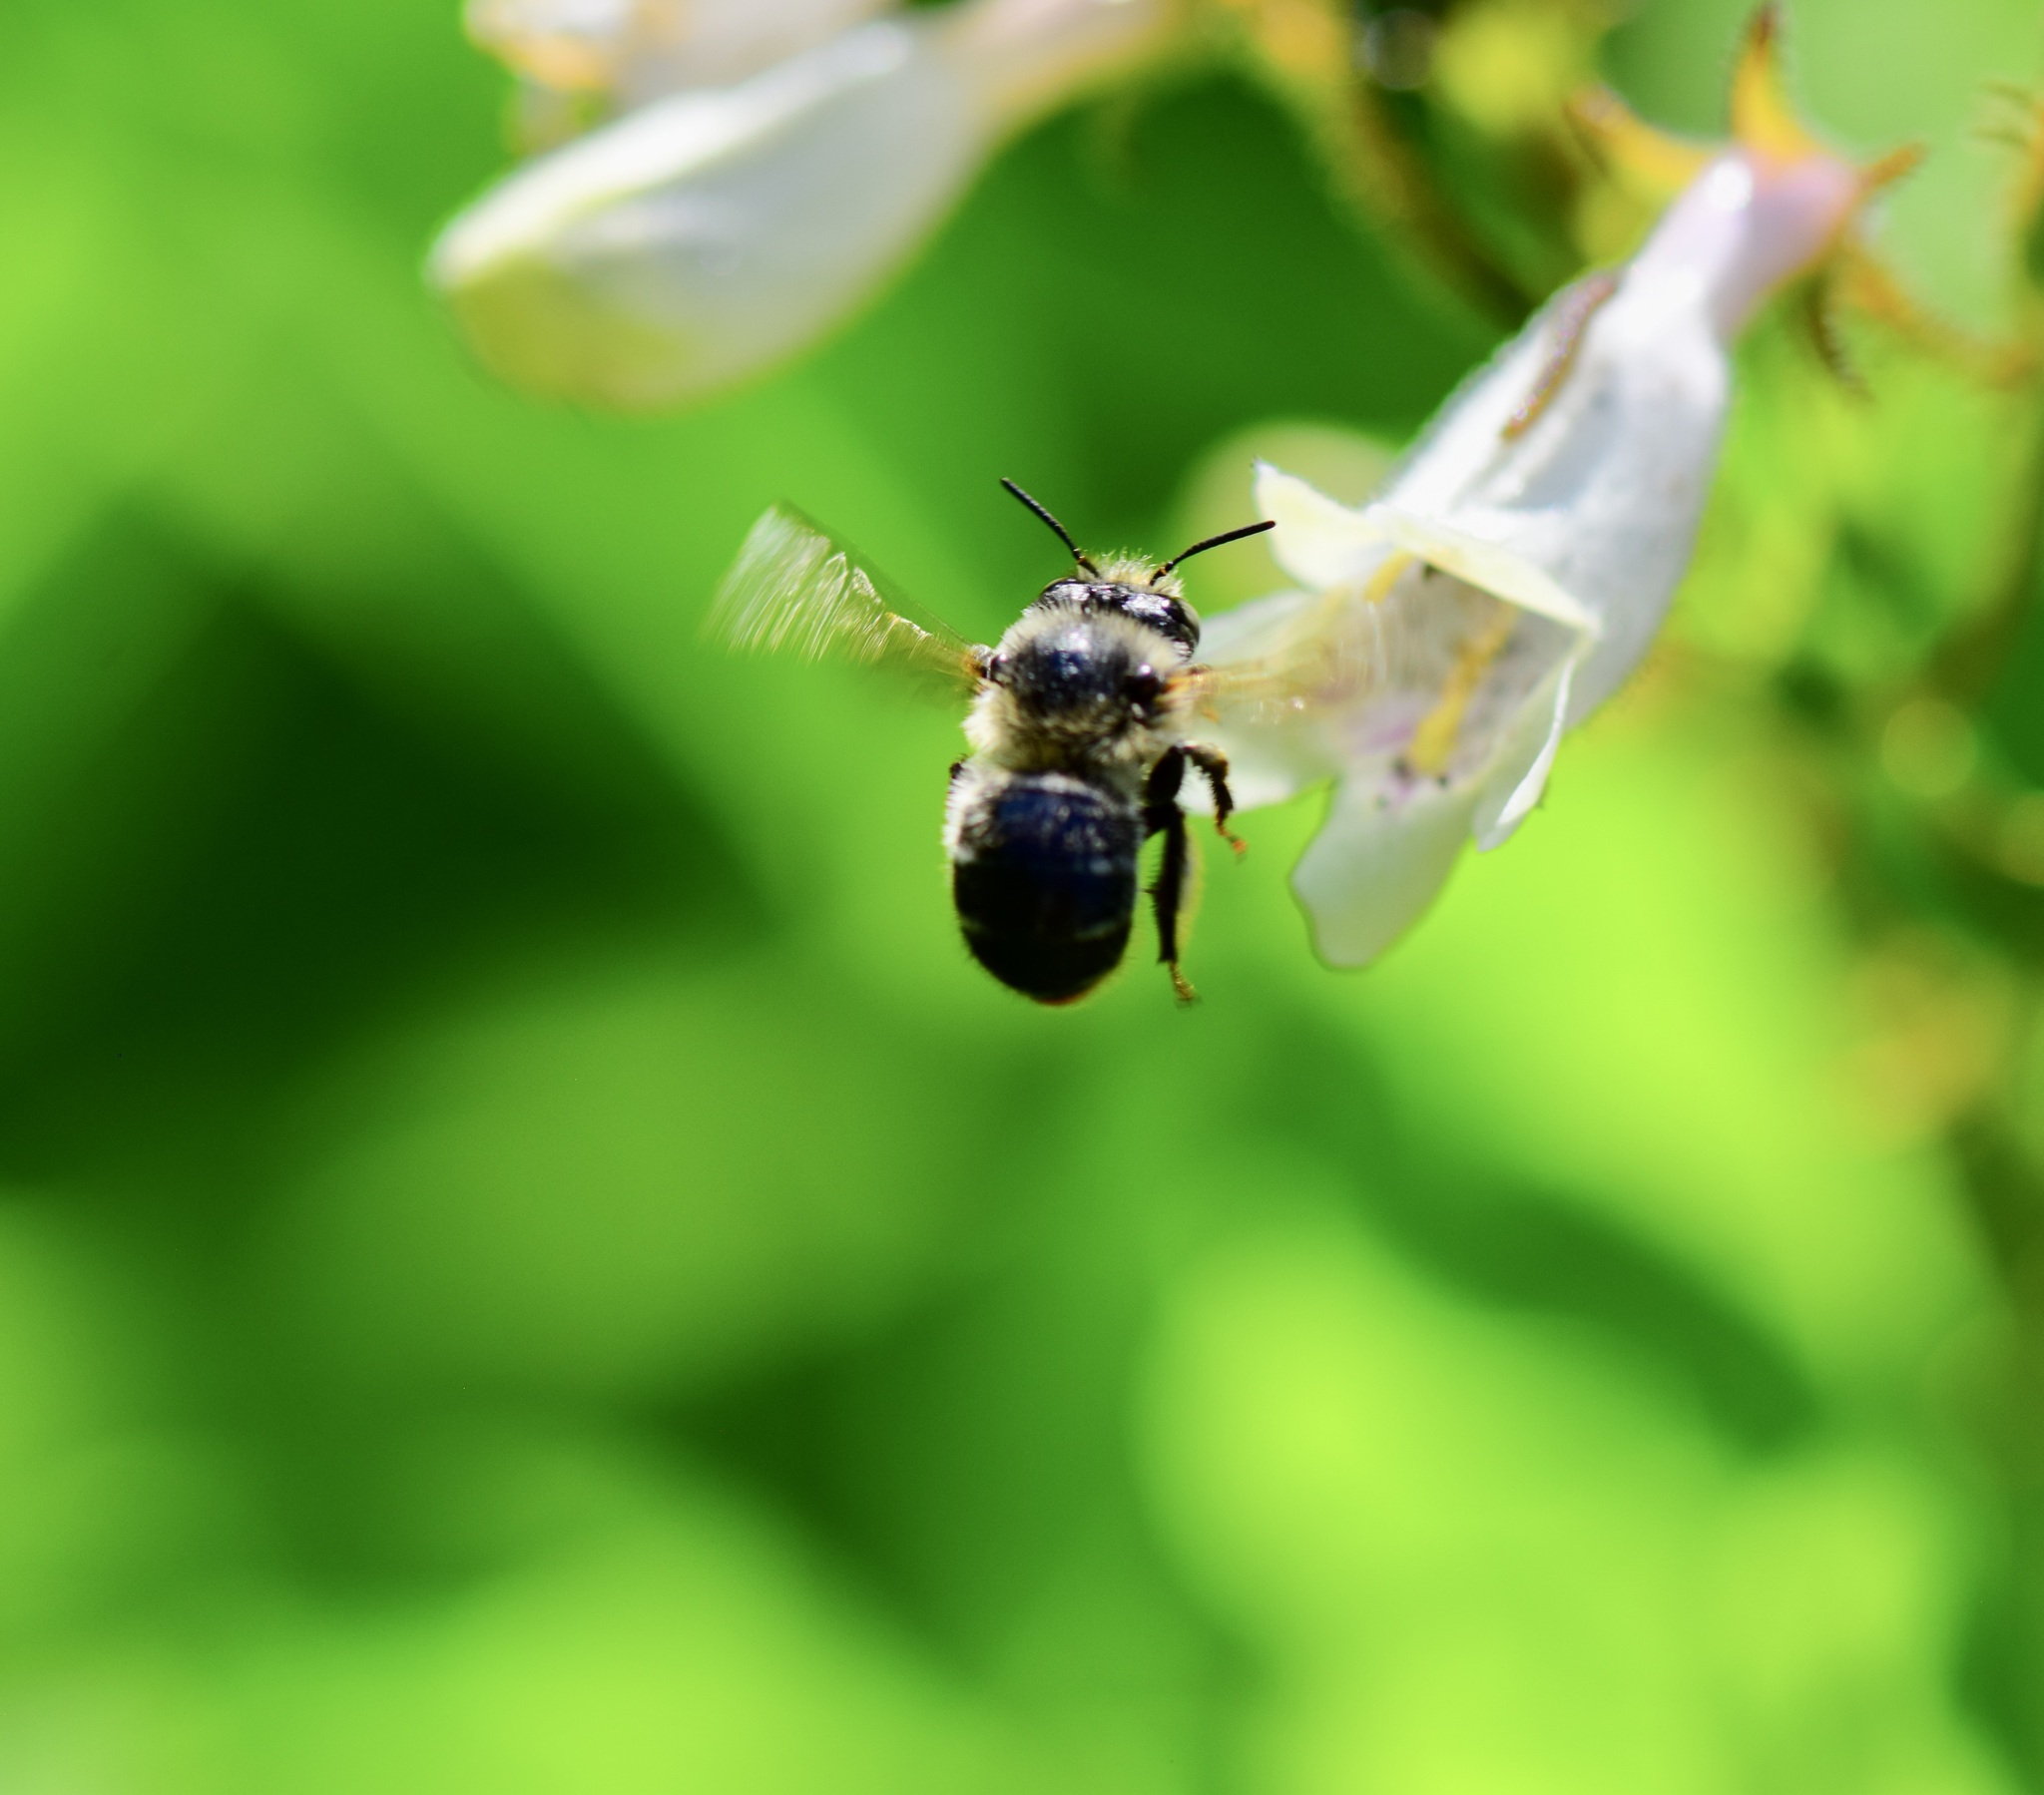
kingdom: Animalia
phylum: Arthropoda
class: Insecta
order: Hymenoptera
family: Apidae
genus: Anthophora
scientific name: Anthophora terminalis
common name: Orange-tipped wood-digger bee
